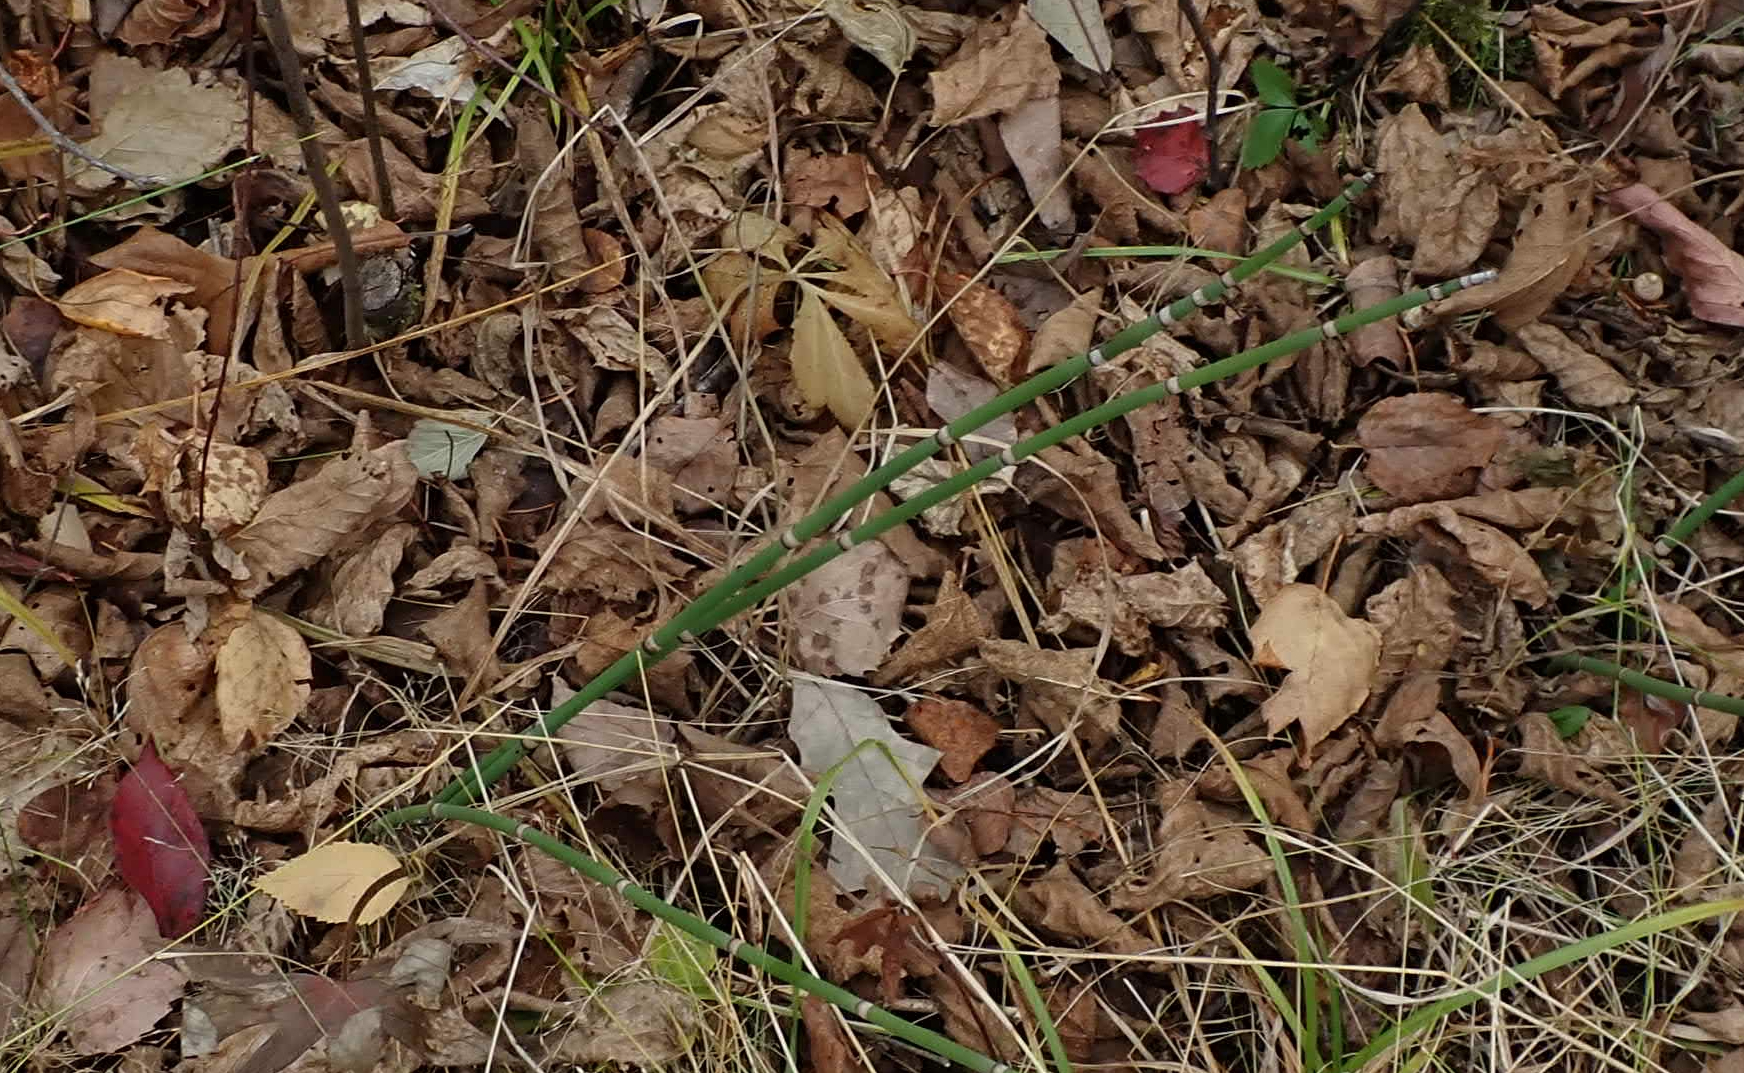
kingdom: Plantae
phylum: Tracheophyta
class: Polypodiopsida
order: Equisetales
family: Equisetaceae
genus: Equisetum
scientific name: Equisetum praealtum
